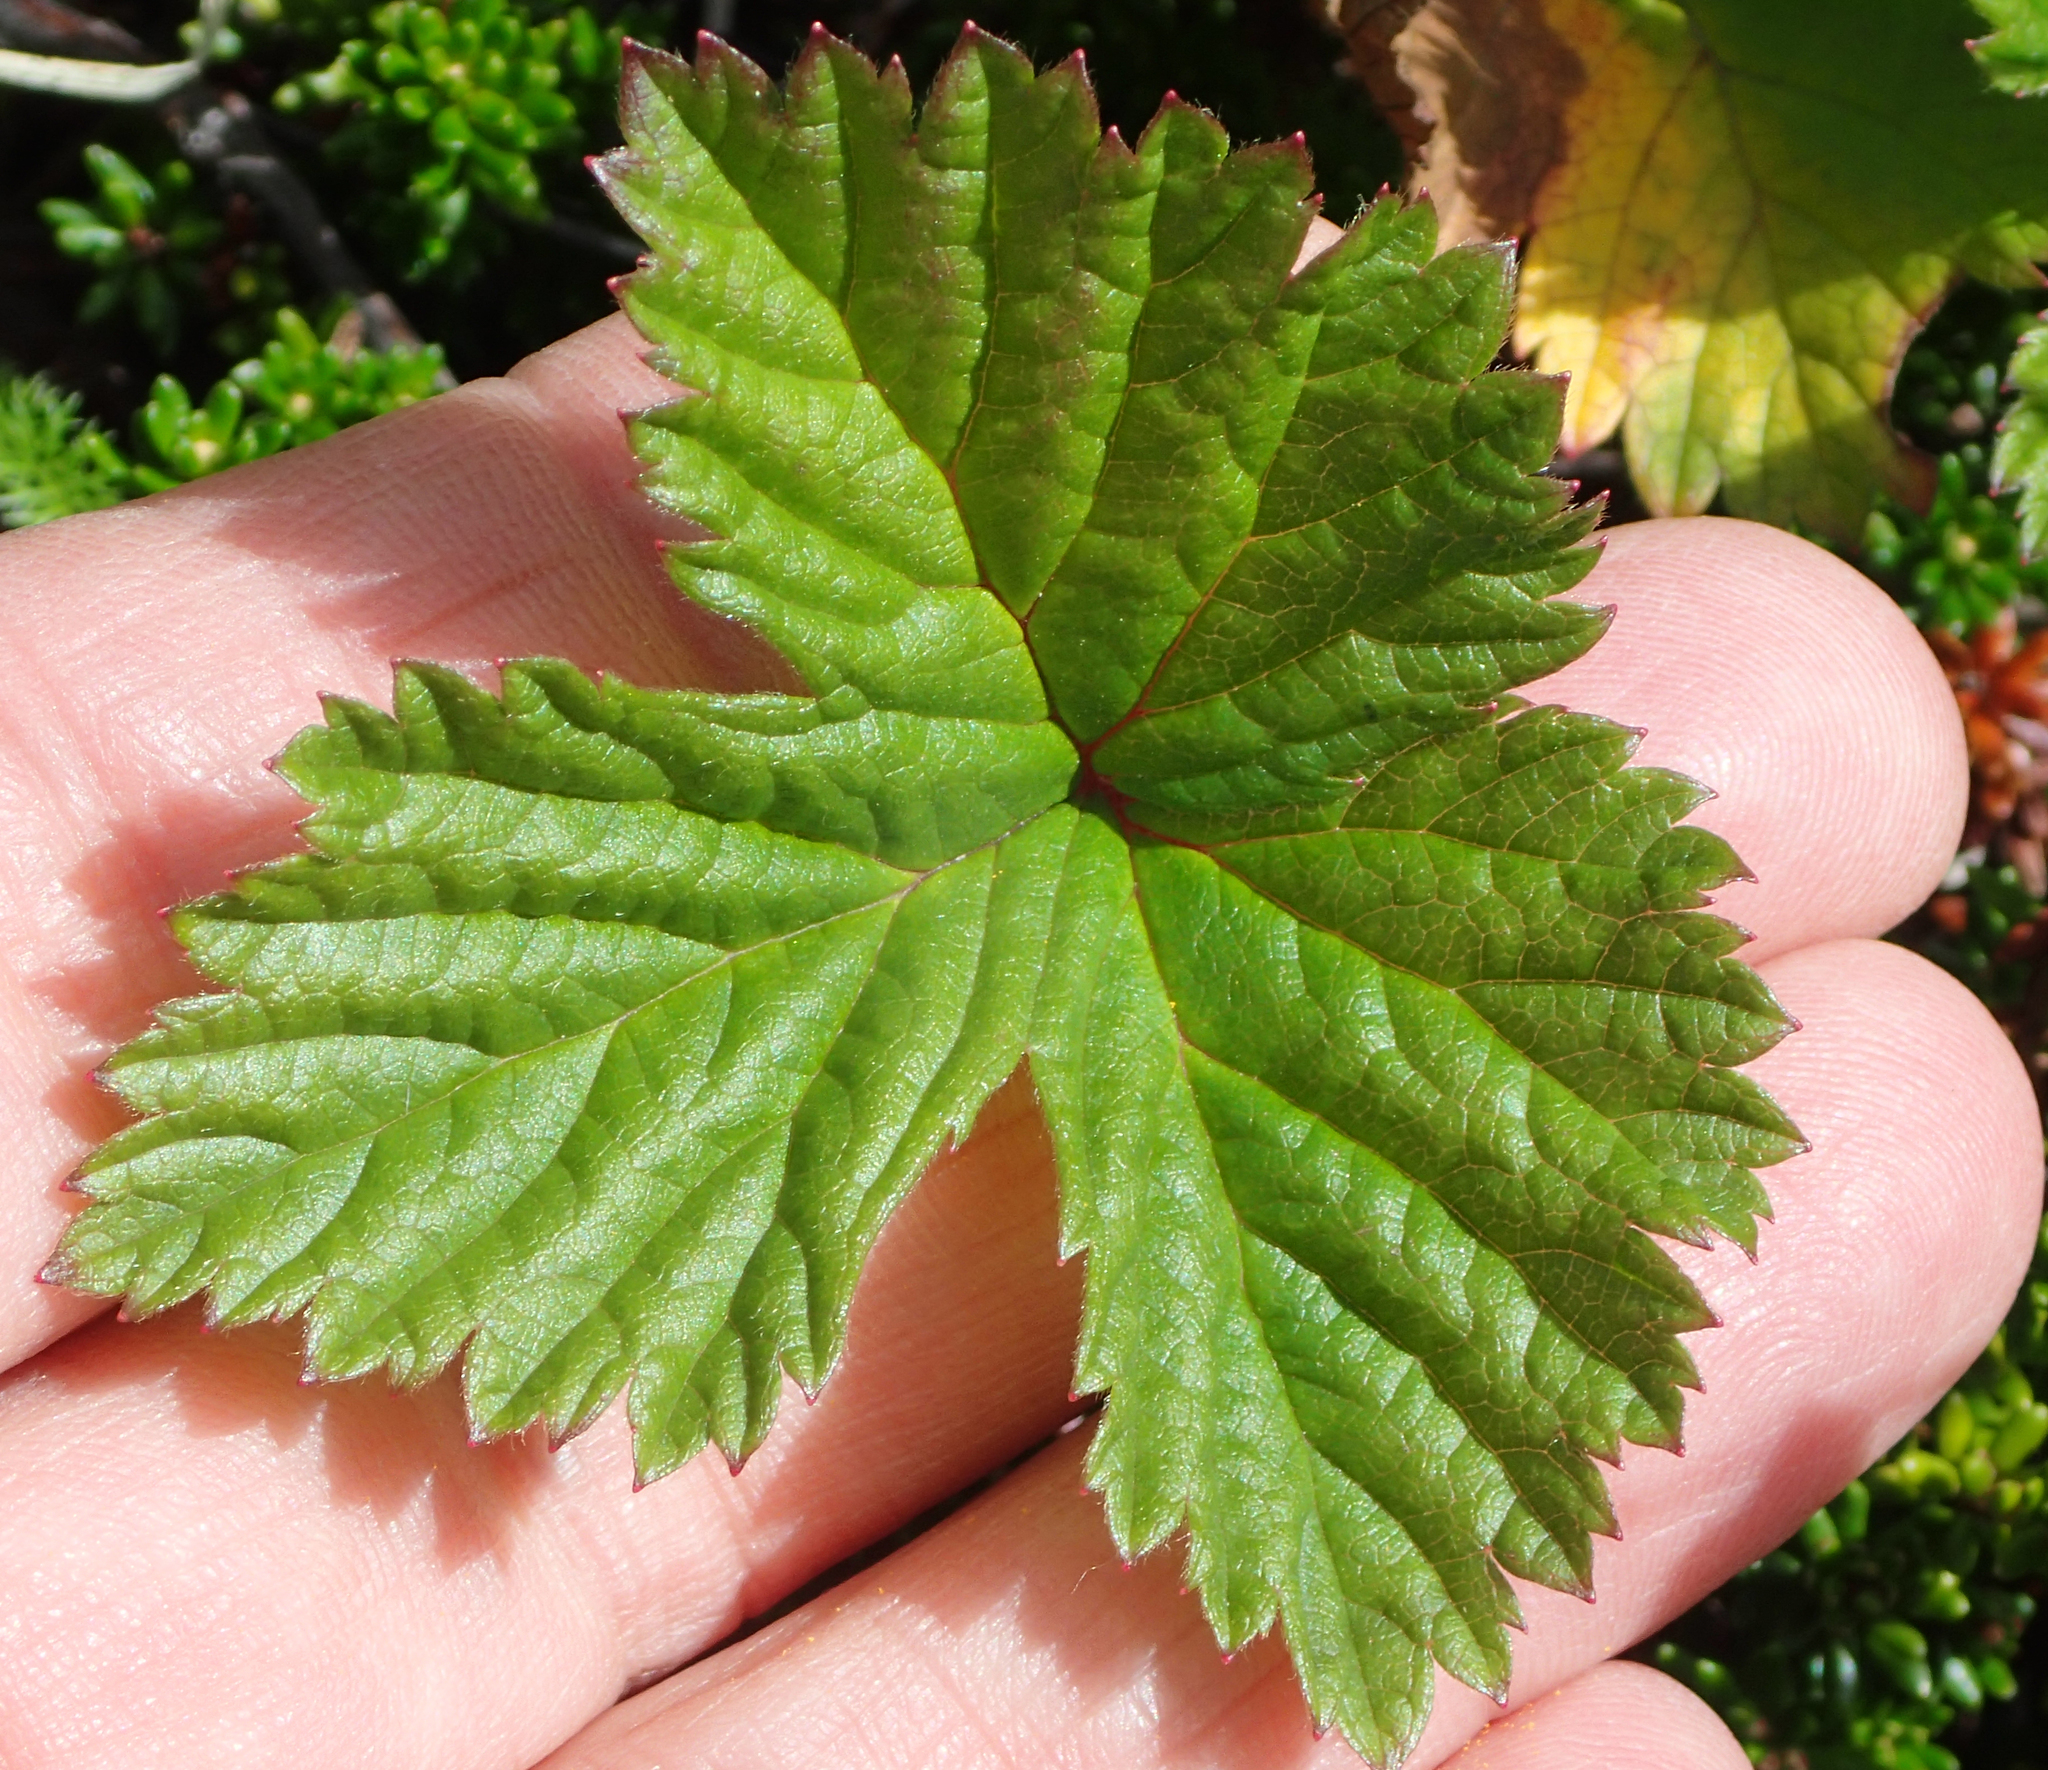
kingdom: Plantae
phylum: Tracheophyta
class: Magnoliopsida
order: Rosales
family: Rosaceae
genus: Rubus
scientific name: Rubus chamaemorus
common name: Cloudberry
